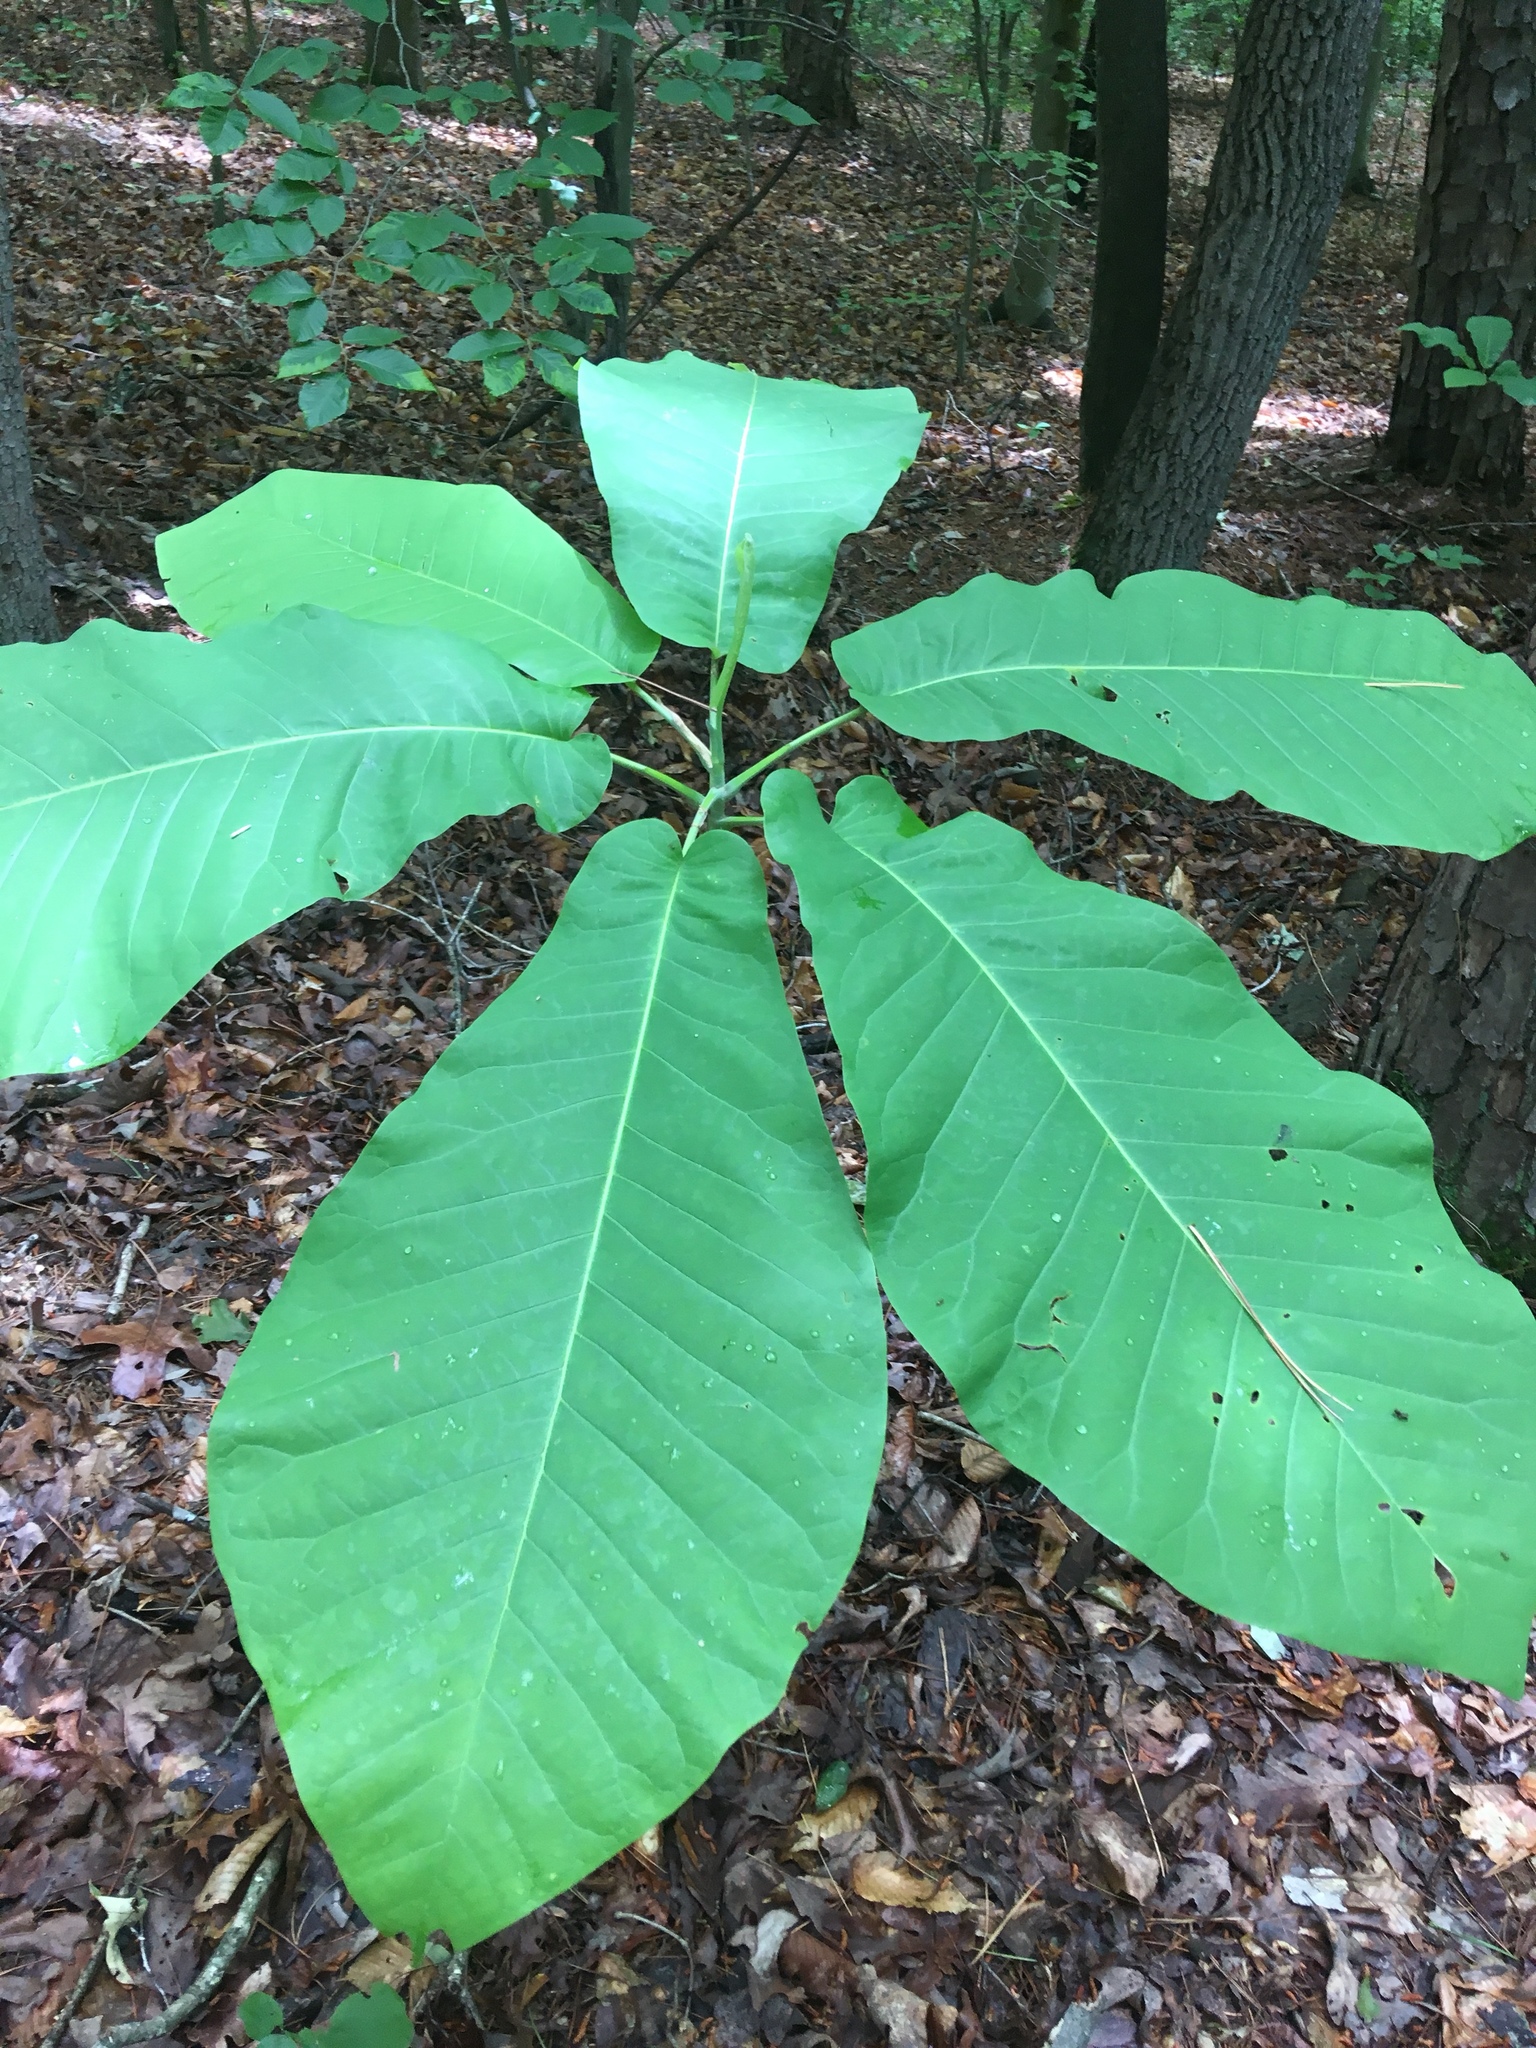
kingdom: Plantae
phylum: Tracheophyta
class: Magnoliopsida
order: Magnoliales
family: Magnoliaceae
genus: Magnolia
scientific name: Magnolia macrophylla
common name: Big-leaf magnolia
